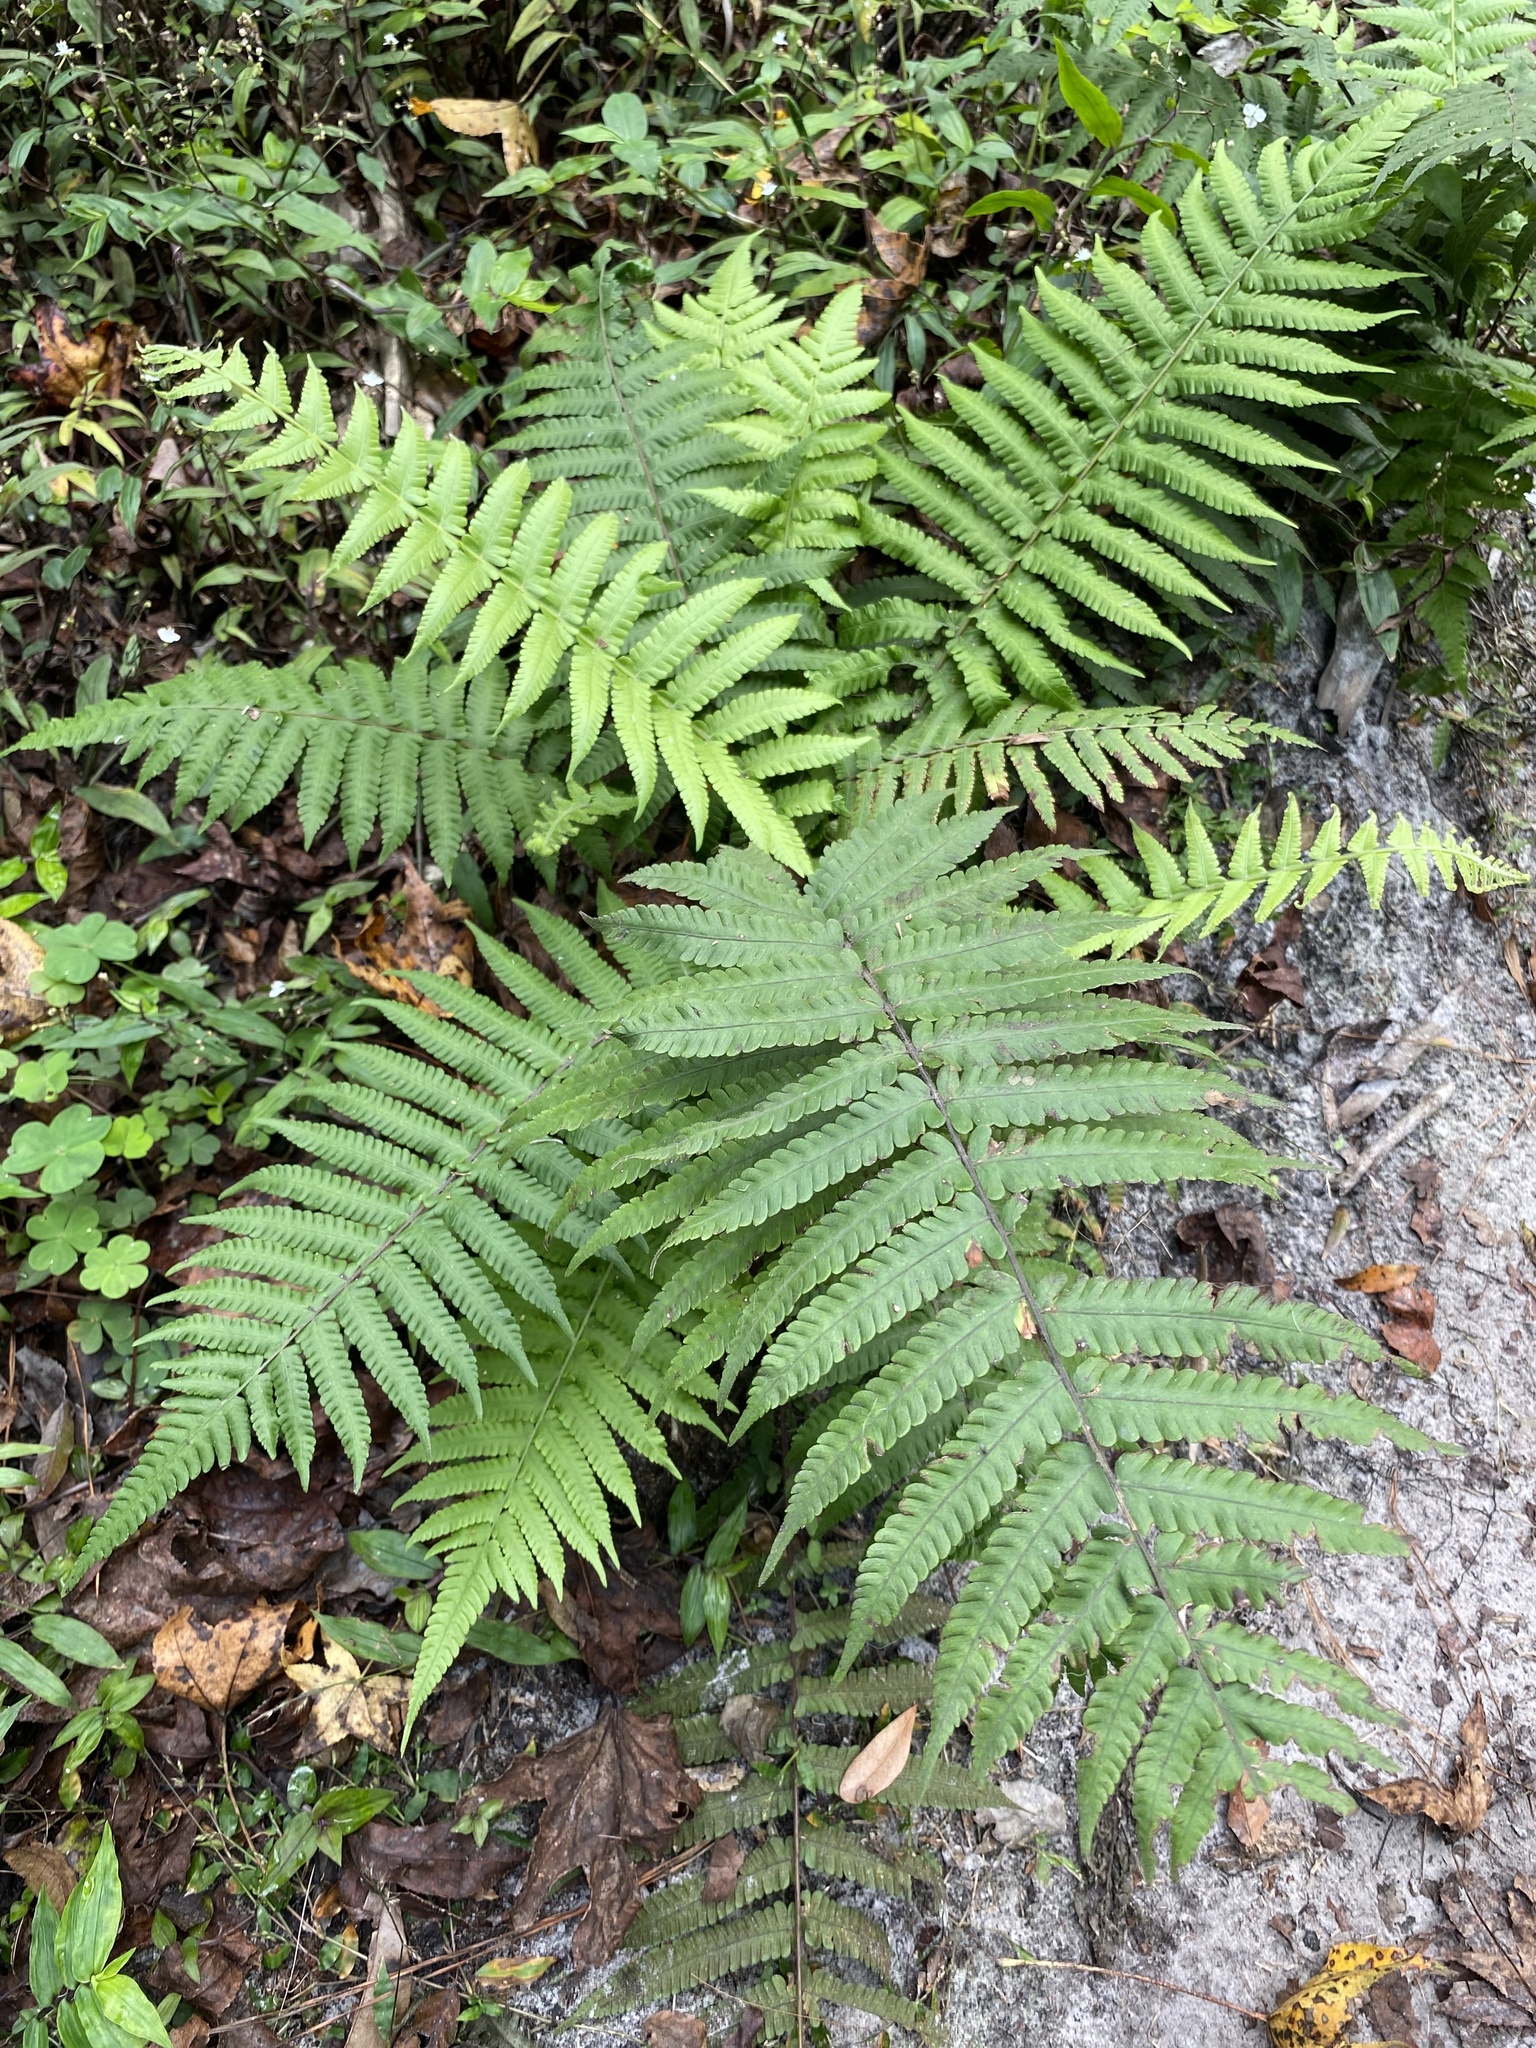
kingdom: Plantae
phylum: Tracheophyta
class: Polypodiopsida
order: Polypodiales
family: Thelypteridaceae
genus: Christella
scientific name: Christella dentata
